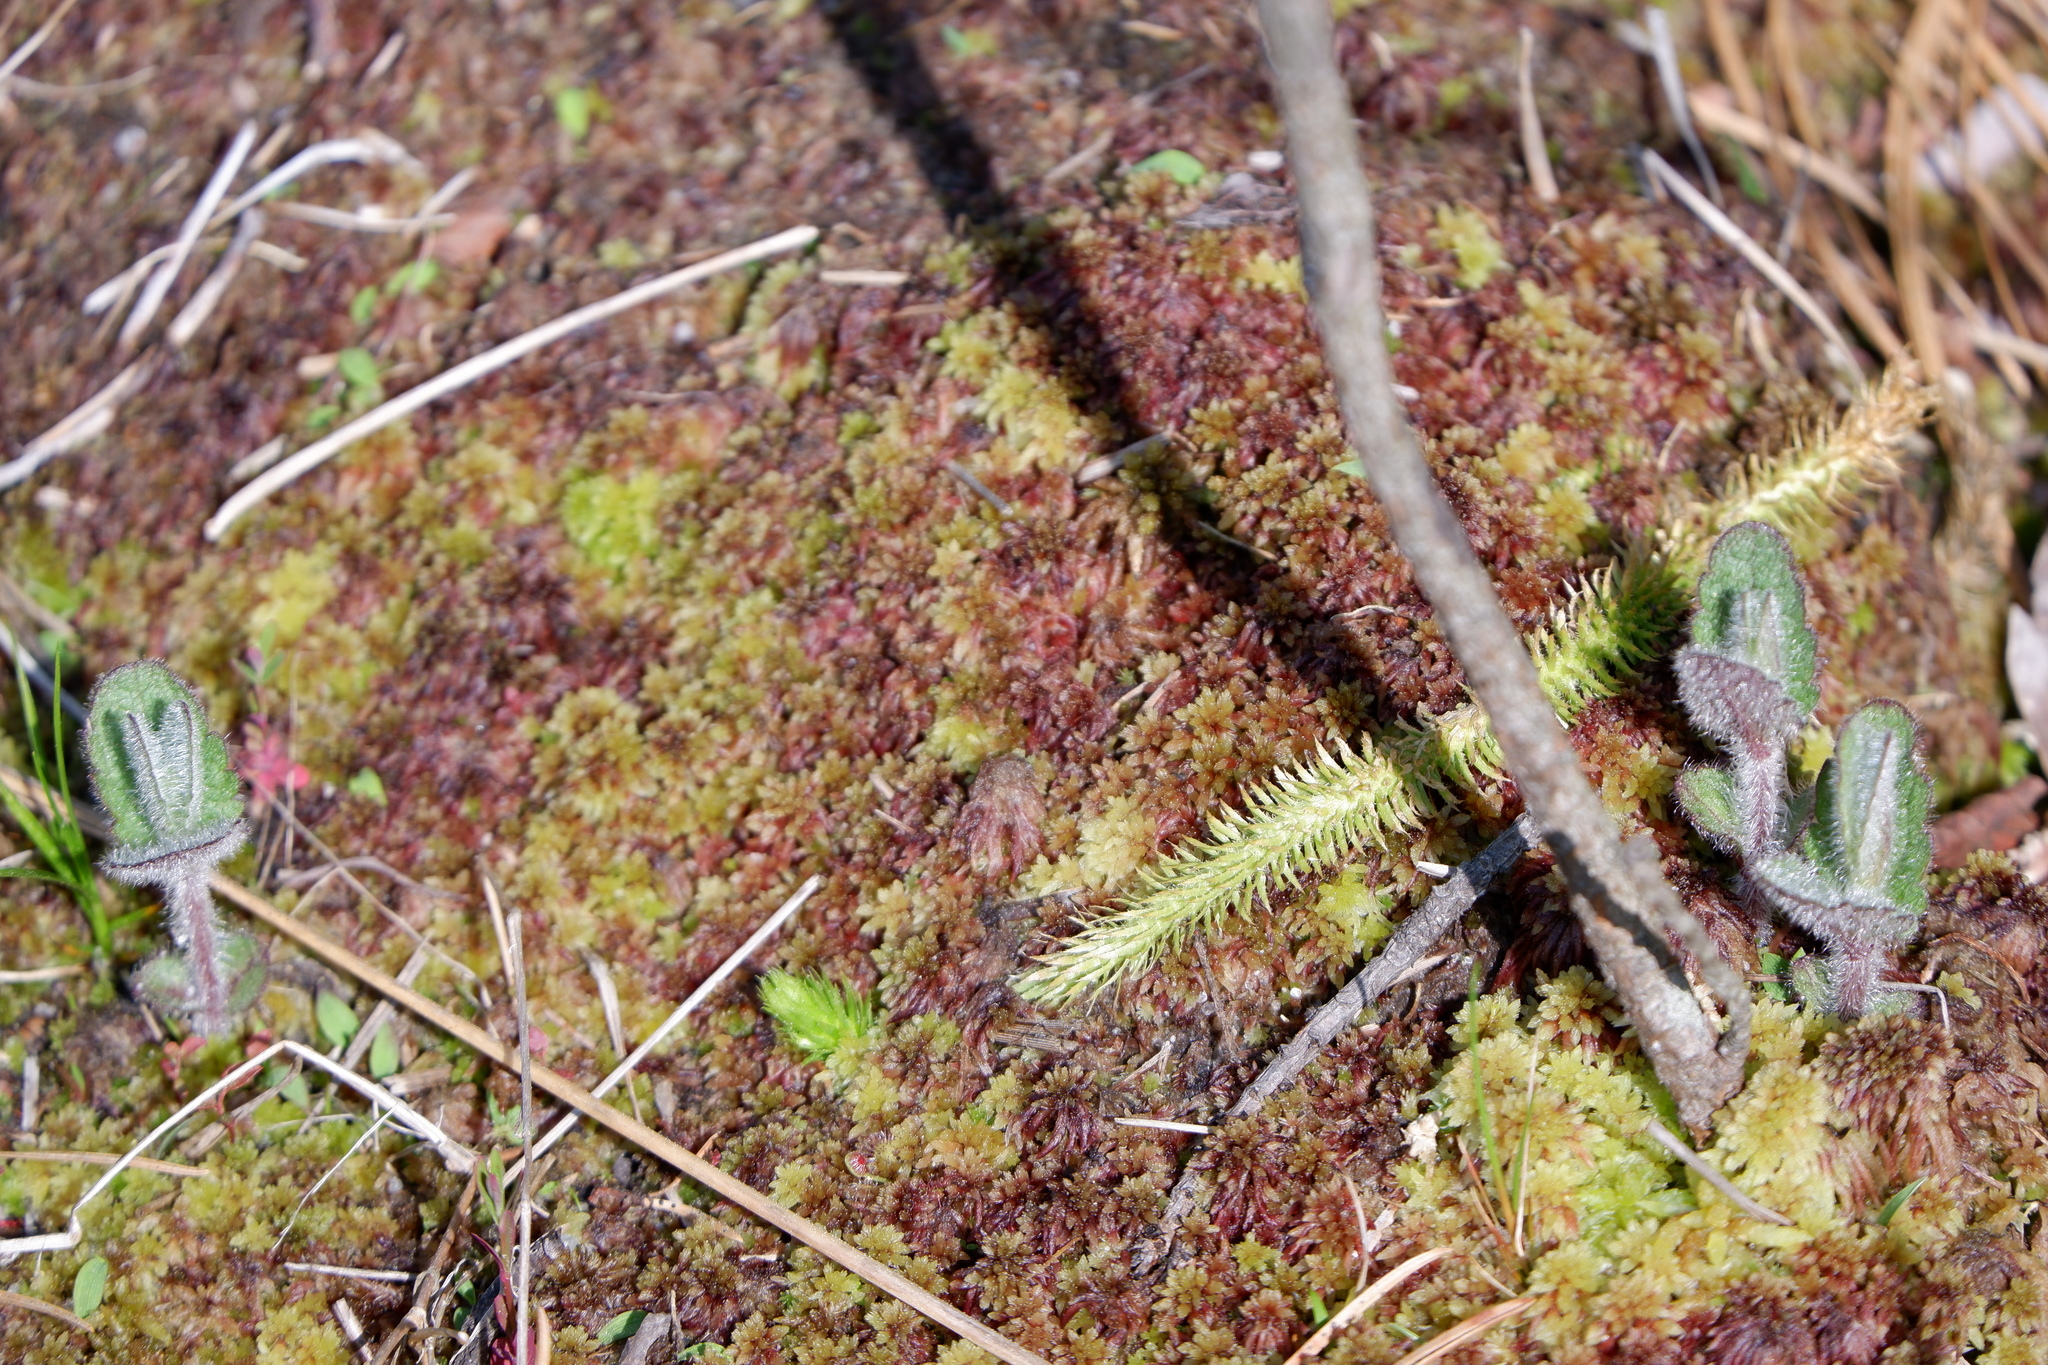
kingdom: Plantae
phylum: Tracheophyta
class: Lycopodiopsida
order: Lycopodiales
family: Lycopodiaceae
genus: Lycopodiella
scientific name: Lycopodiella alopecuroides
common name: Foxtail clubmoss
